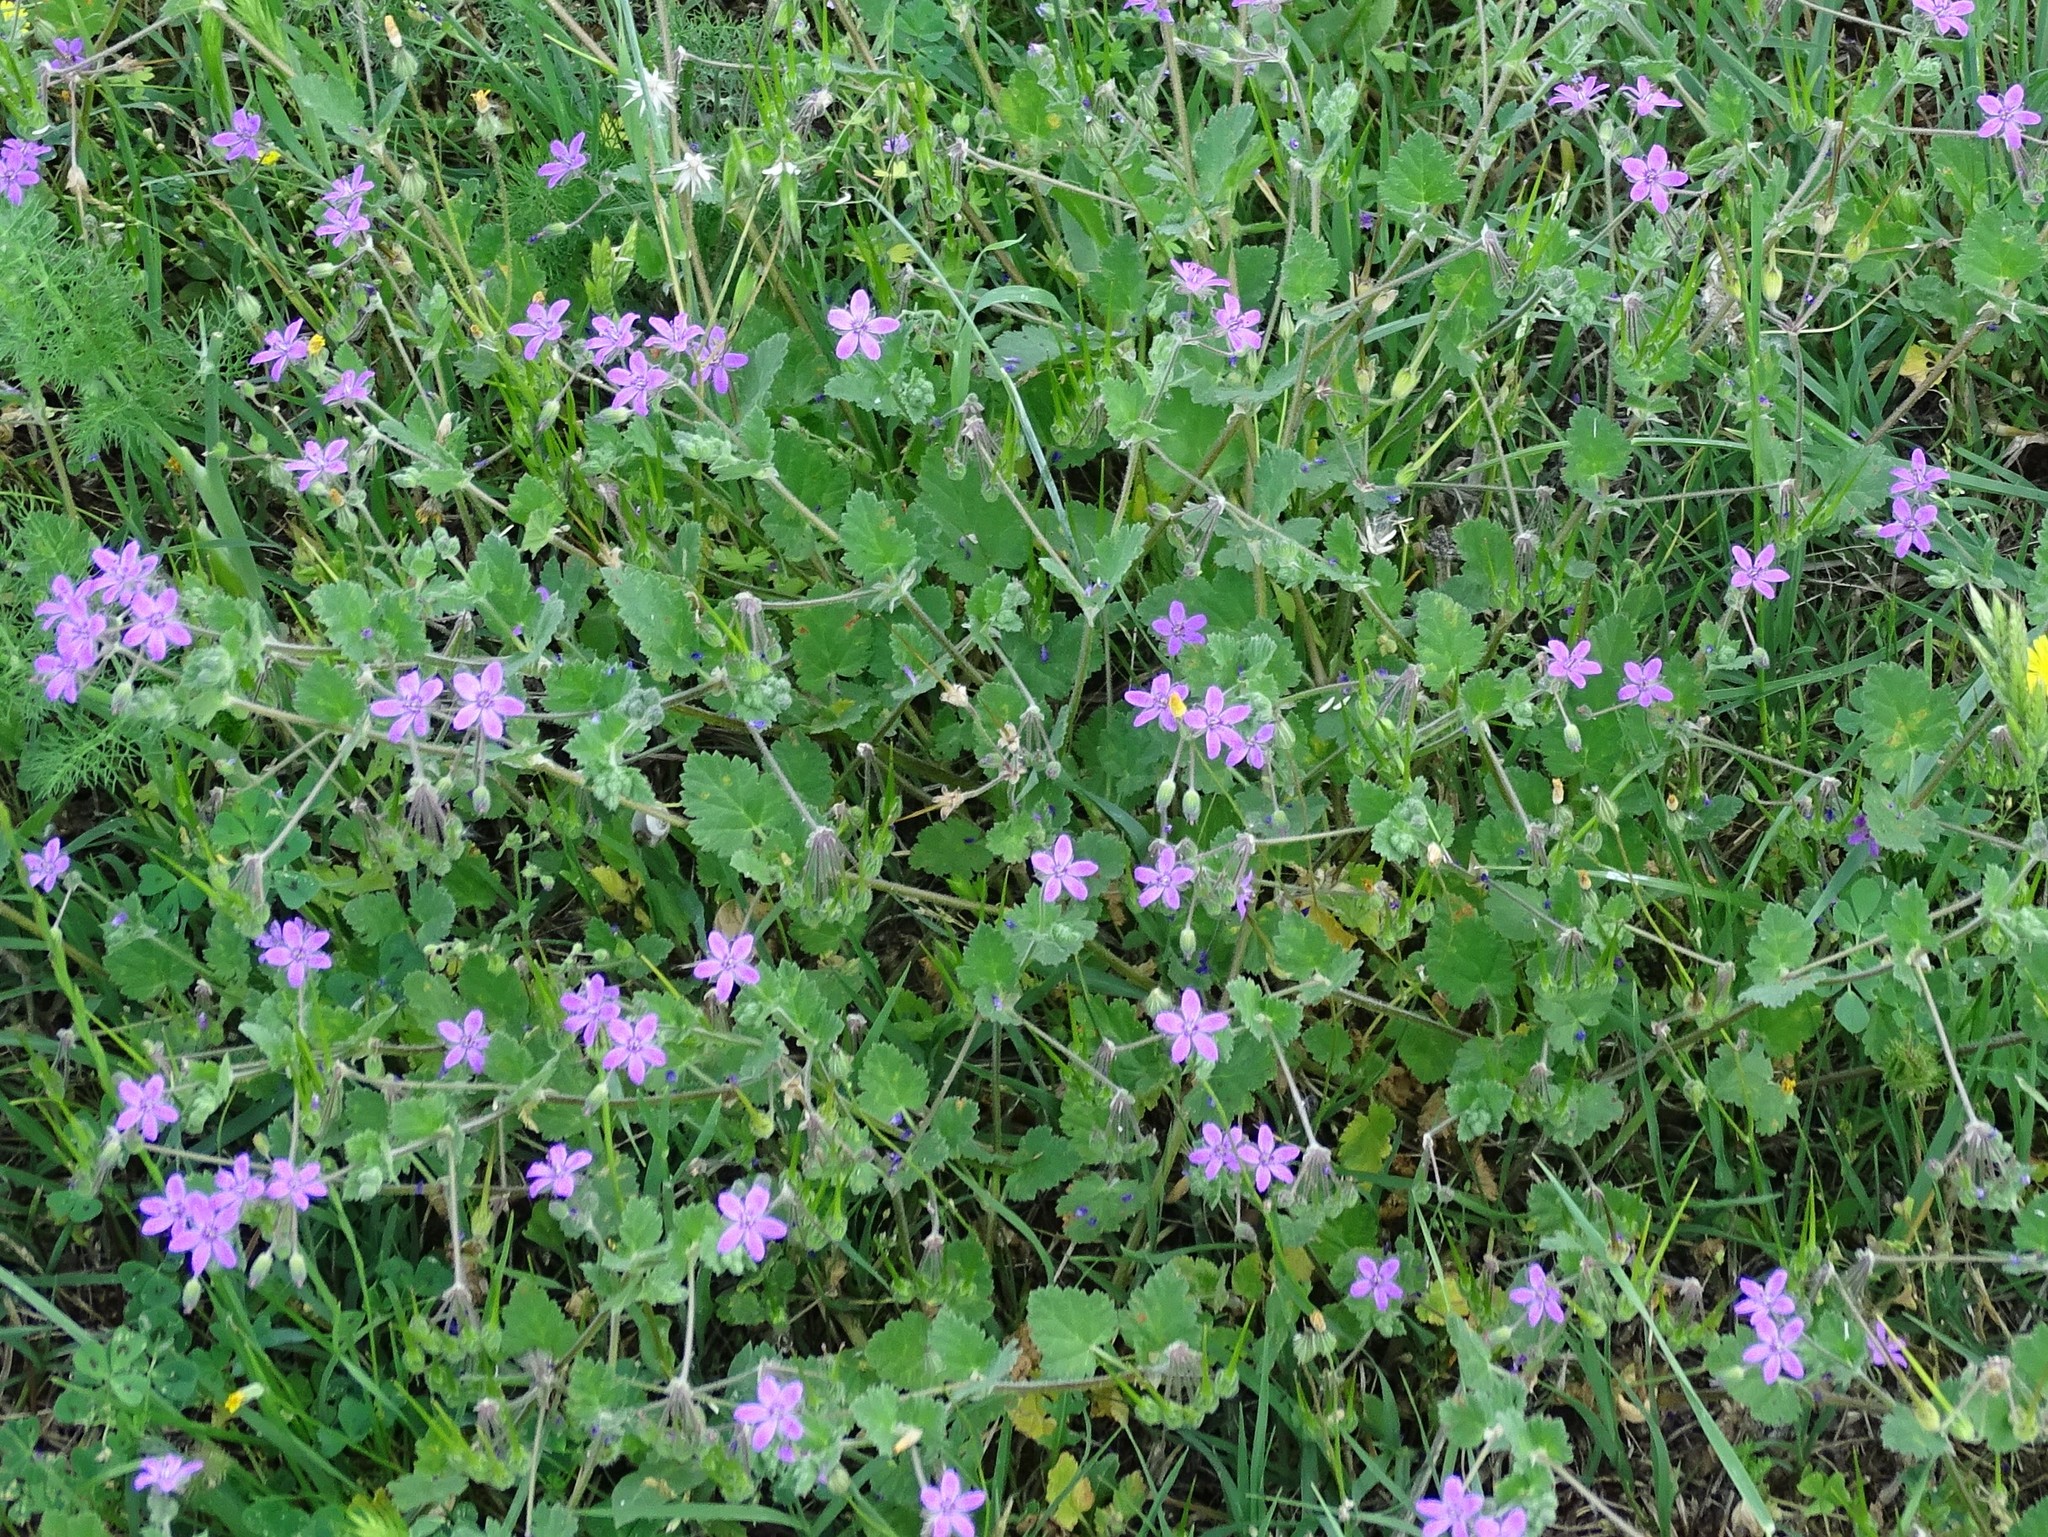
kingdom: Plantae
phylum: Tracheophyta
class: Magnoliopsida
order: Geraniales
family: Geraniaceae
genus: Erodium
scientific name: Erodium malacoides
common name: Soft stork's-bill
